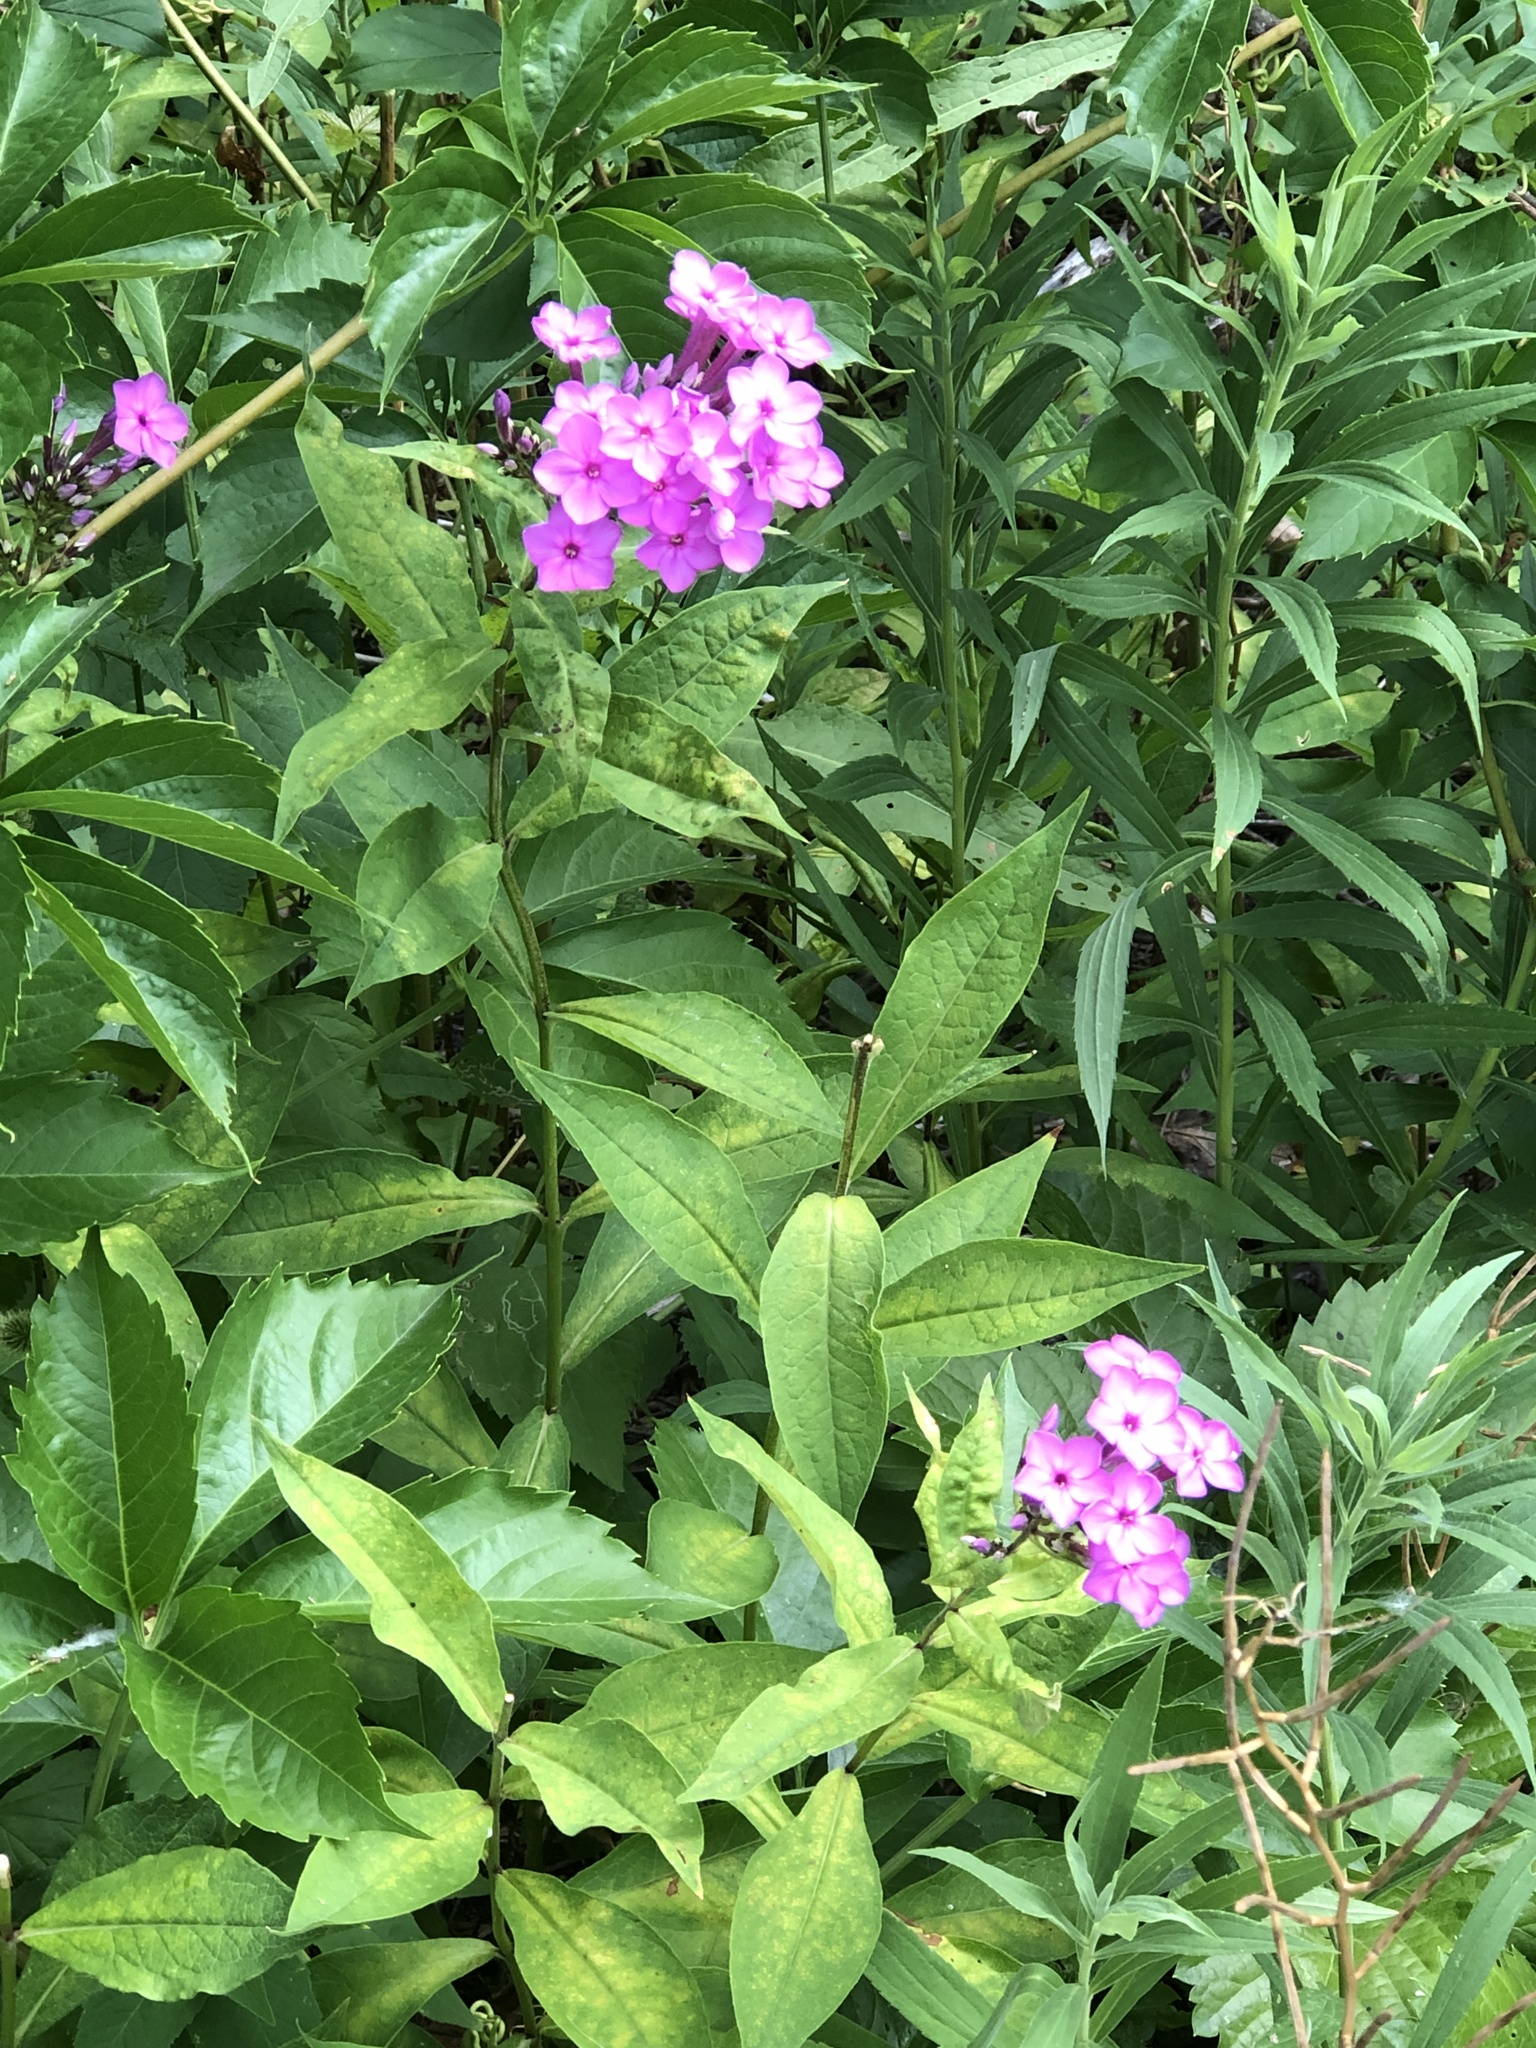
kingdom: Plantae
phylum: Tracheophyta
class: Magnoliopsida
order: Ericales
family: Polemoniaceae
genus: Phlox
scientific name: Phlox paniculata
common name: Fall phlox
